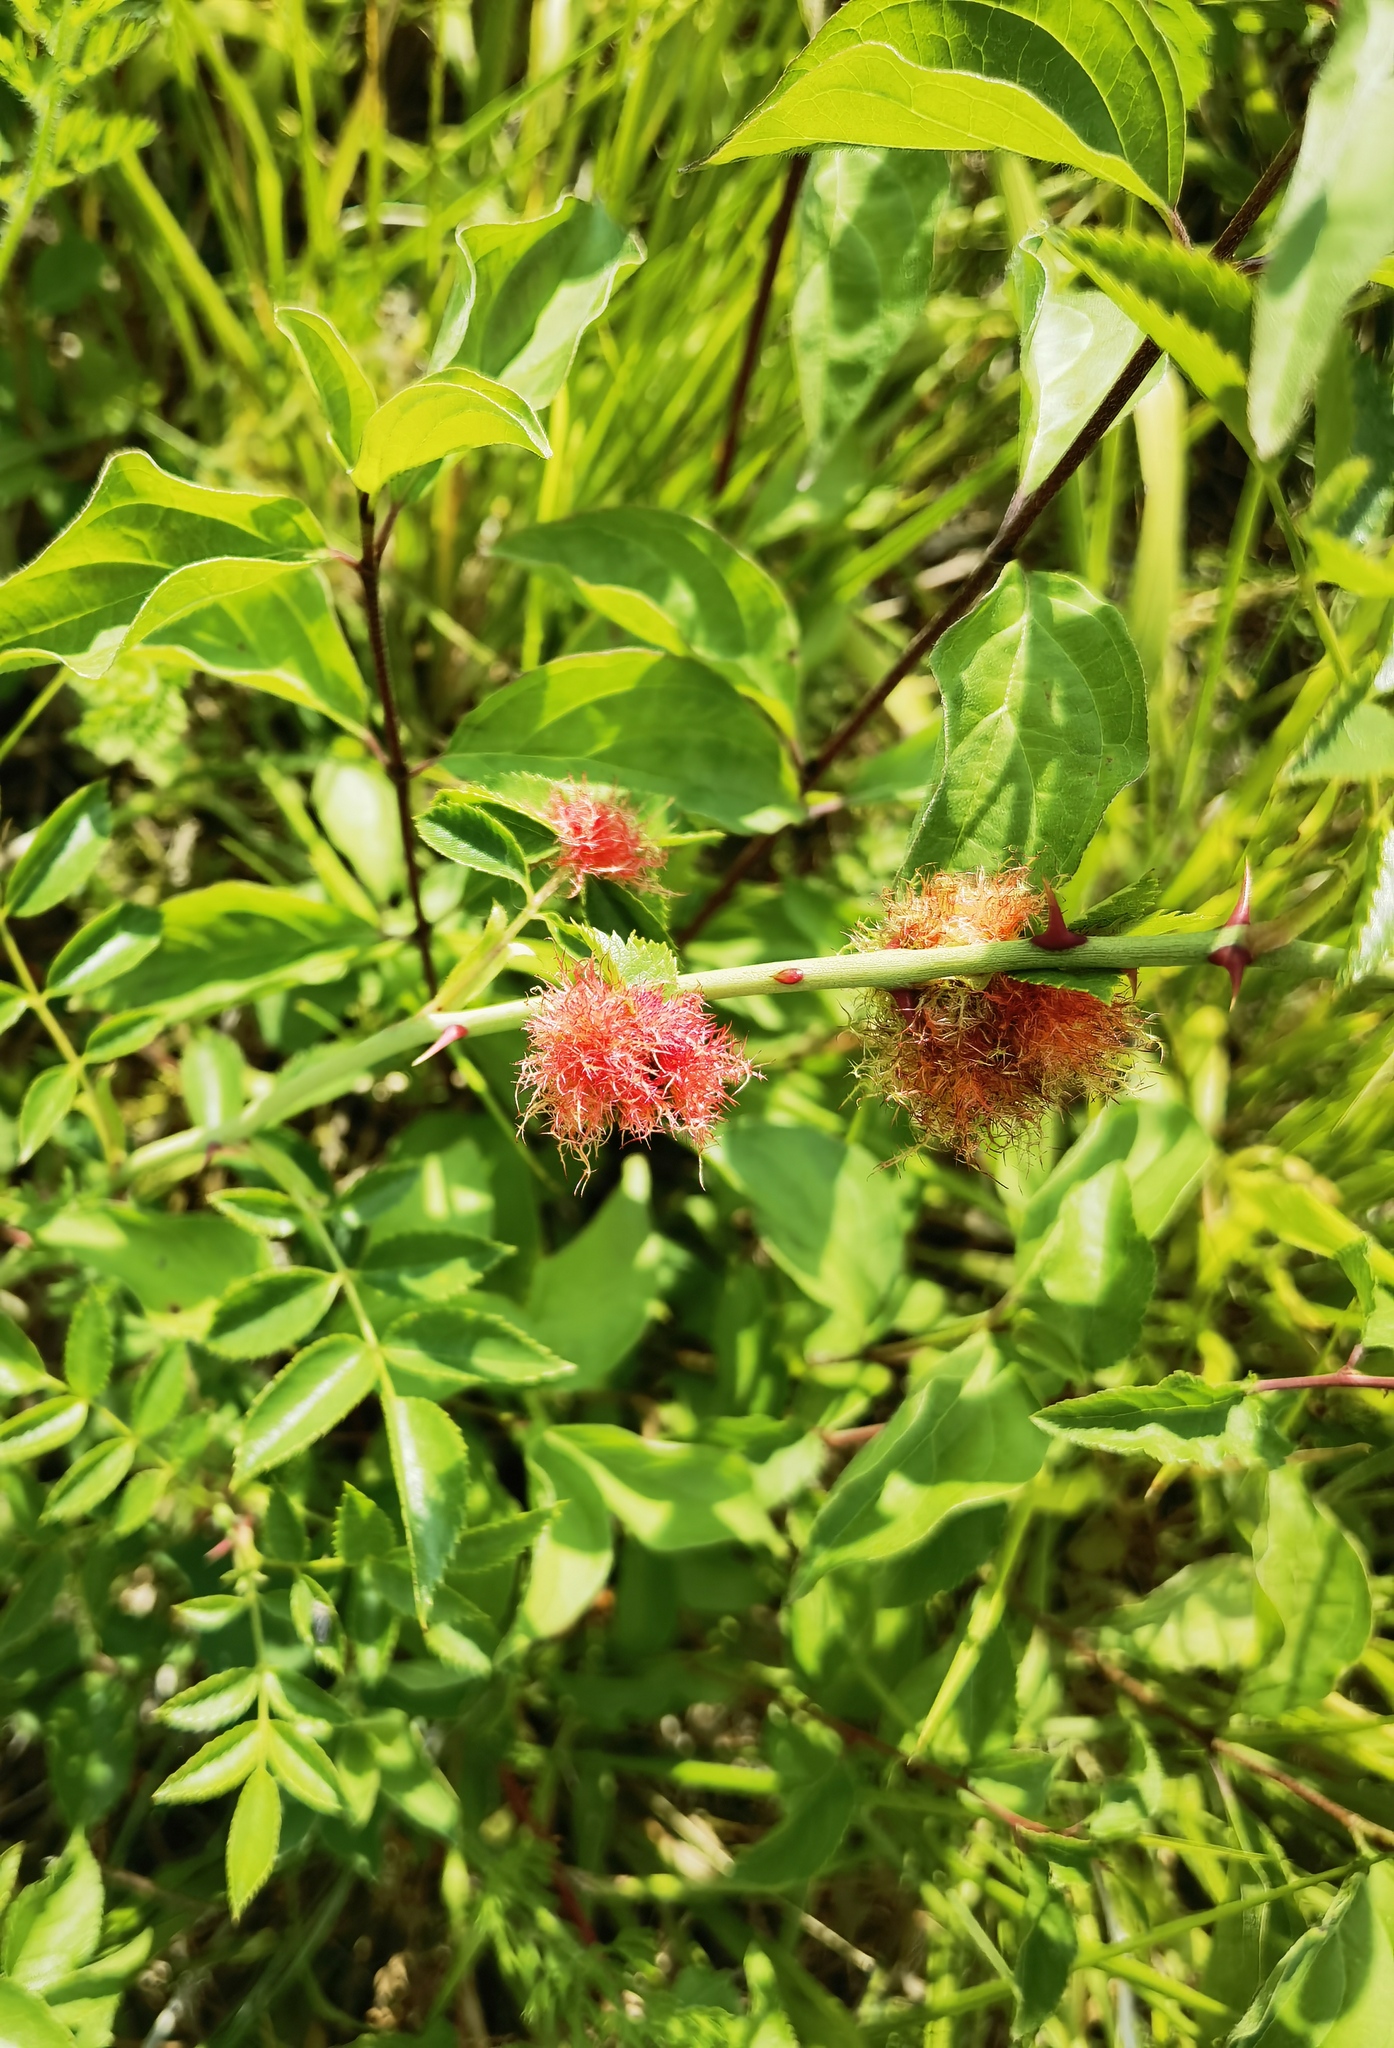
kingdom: Animalia
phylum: Arthropoda
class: Insecta
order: Hymenoptera
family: Cynipidae
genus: Diplolepis
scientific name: Diplolepis rosae
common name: Bedeguar gall
